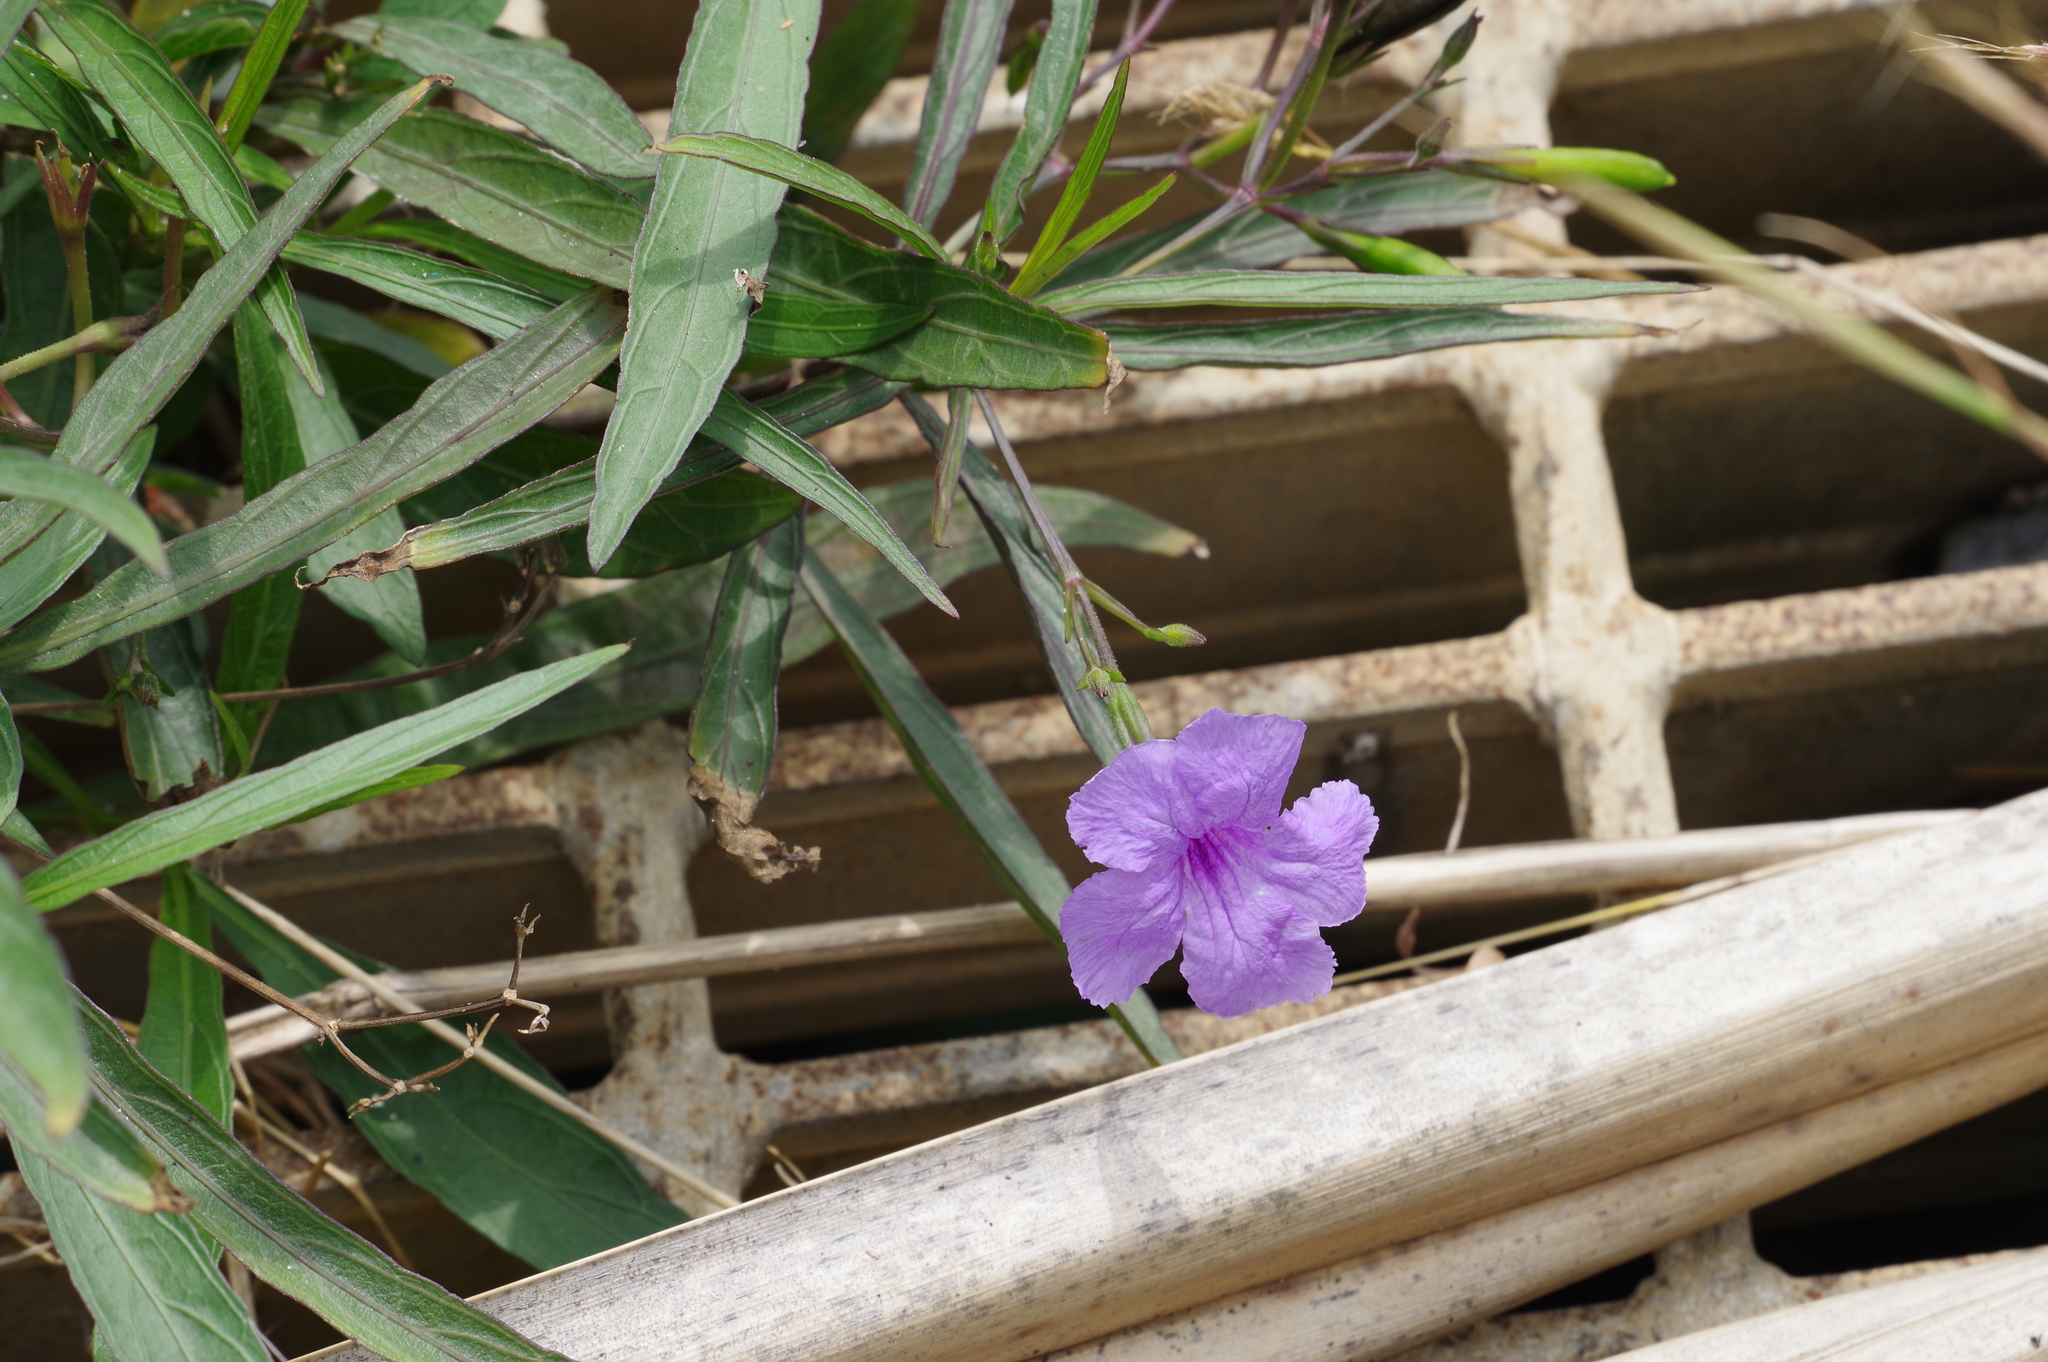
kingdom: Plantae
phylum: Tracheophyta
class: Magnoliopsida
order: Lamiales
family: Acanthaceae
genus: Ruellia
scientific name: Ruellia simplex
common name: Softseed wild petunia
